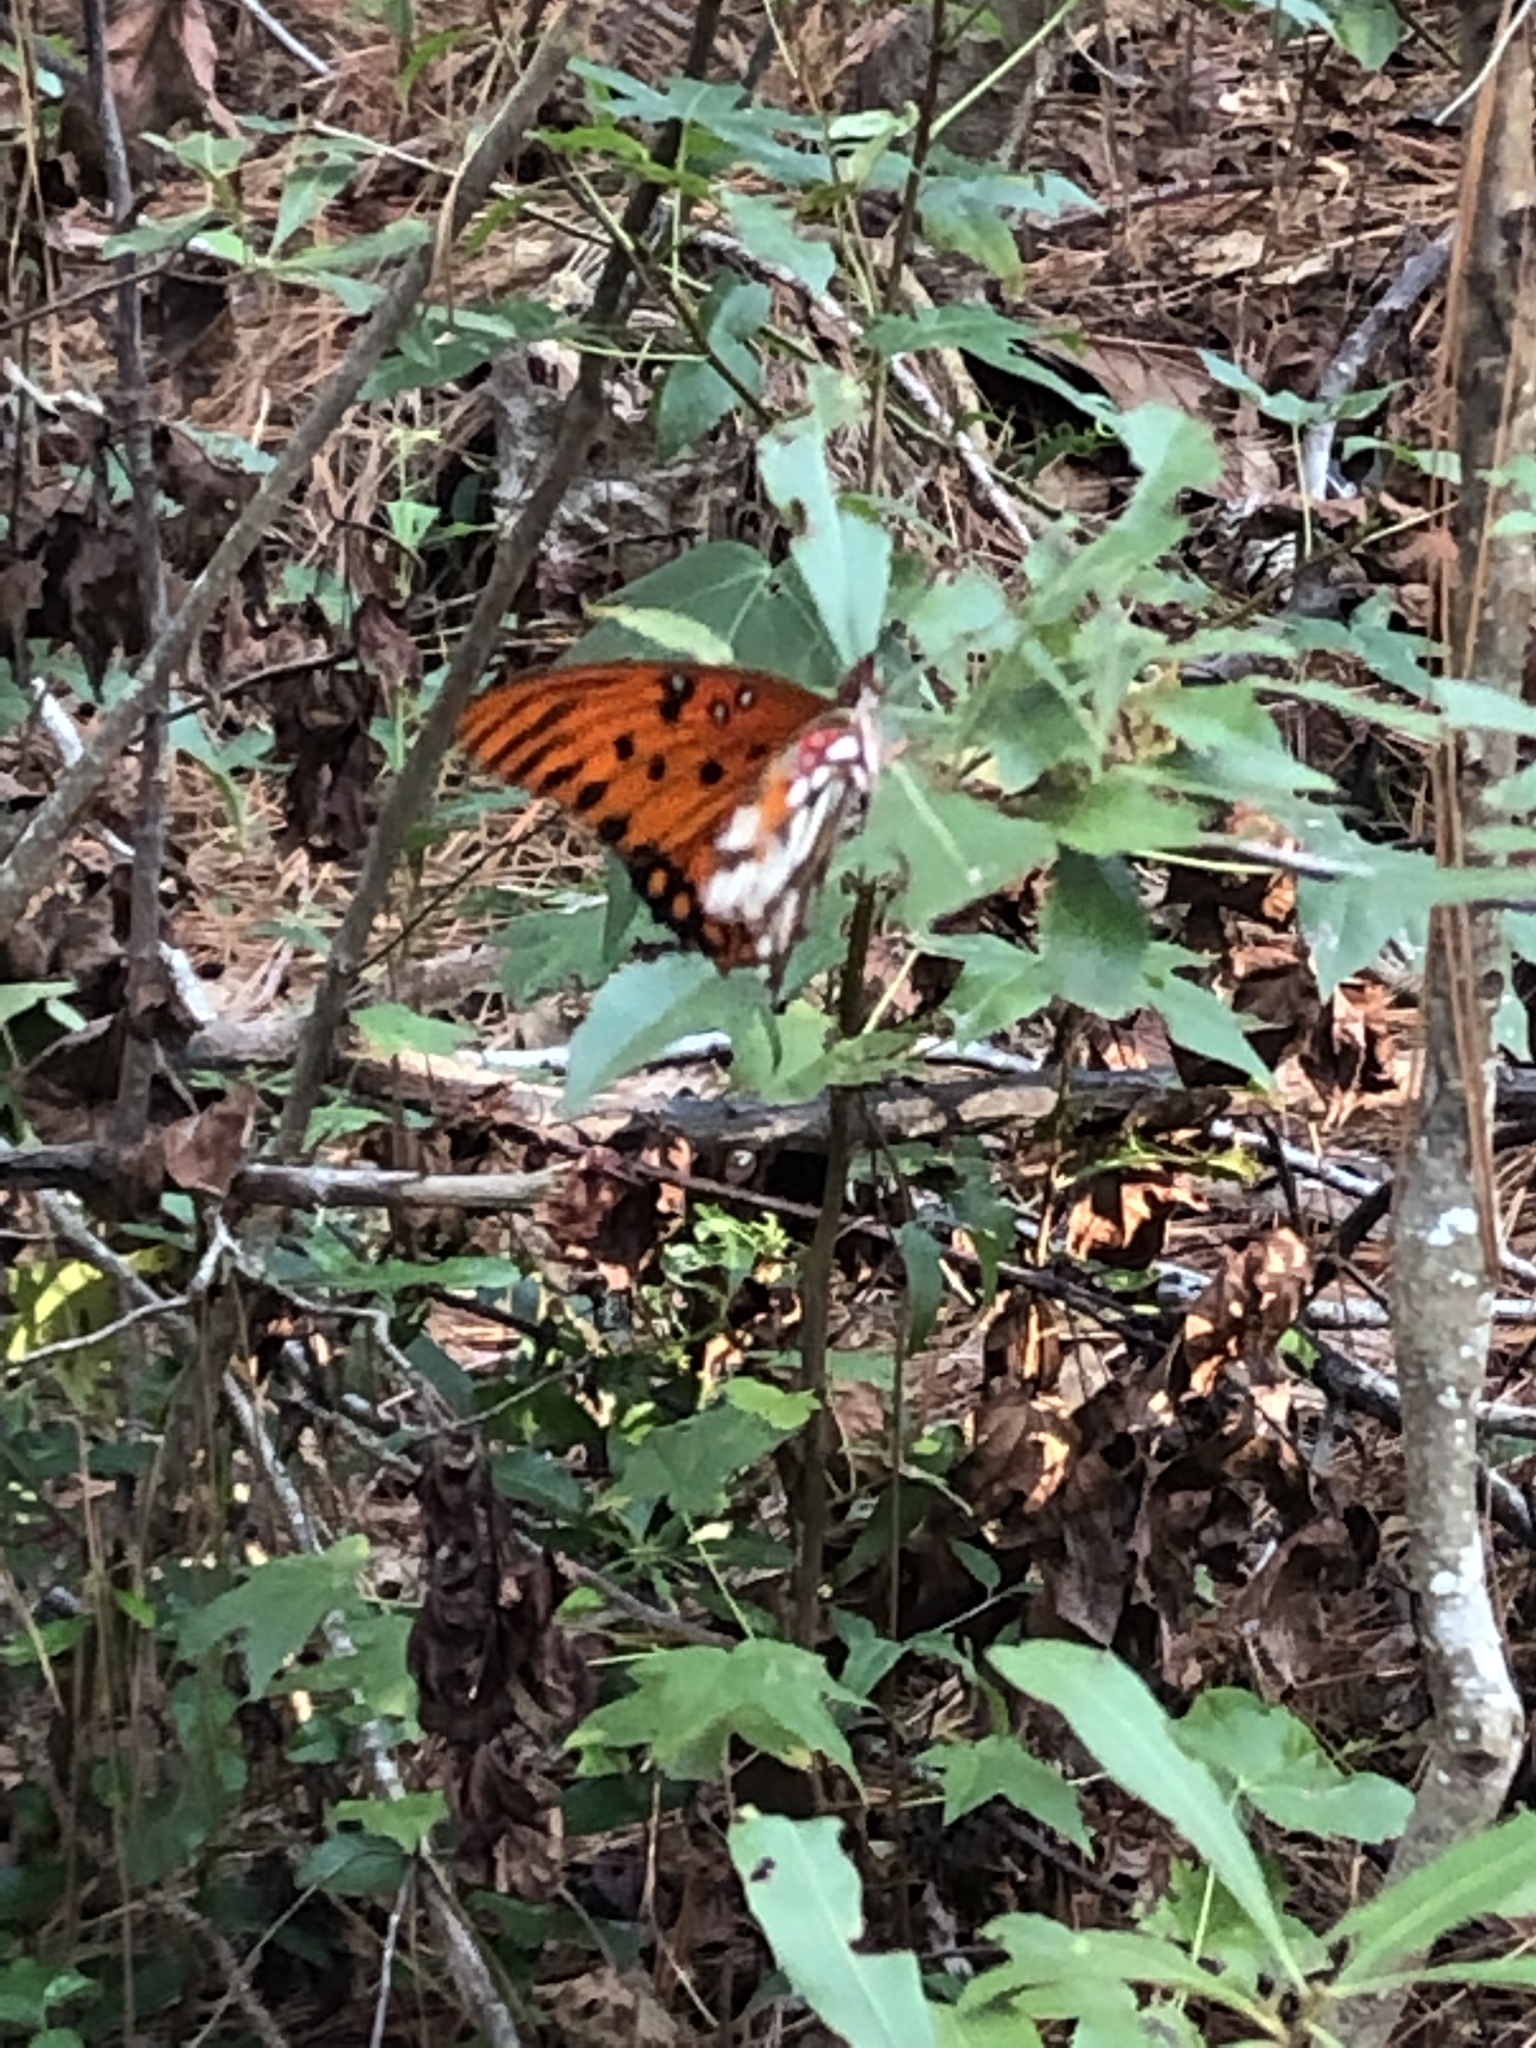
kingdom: Animalia
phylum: Arthropoda
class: Insecta
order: Lepidoptera
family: Nymphalidae
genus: Dione
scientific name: Dione vanillae
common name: Gulf fritillary
